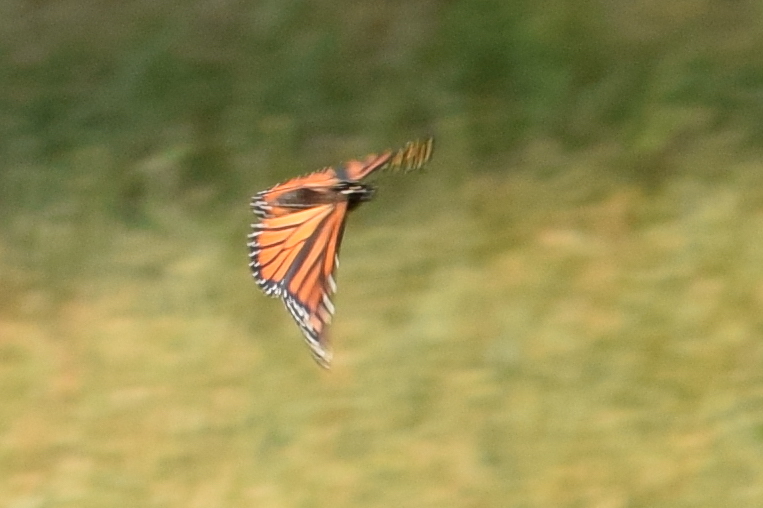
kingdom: Animalia
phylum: Arthropoda
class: Insecta
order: Lepidoptera
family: Nymphalidae
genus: Danaus
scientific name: Danaus plexippus
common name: Monarch
